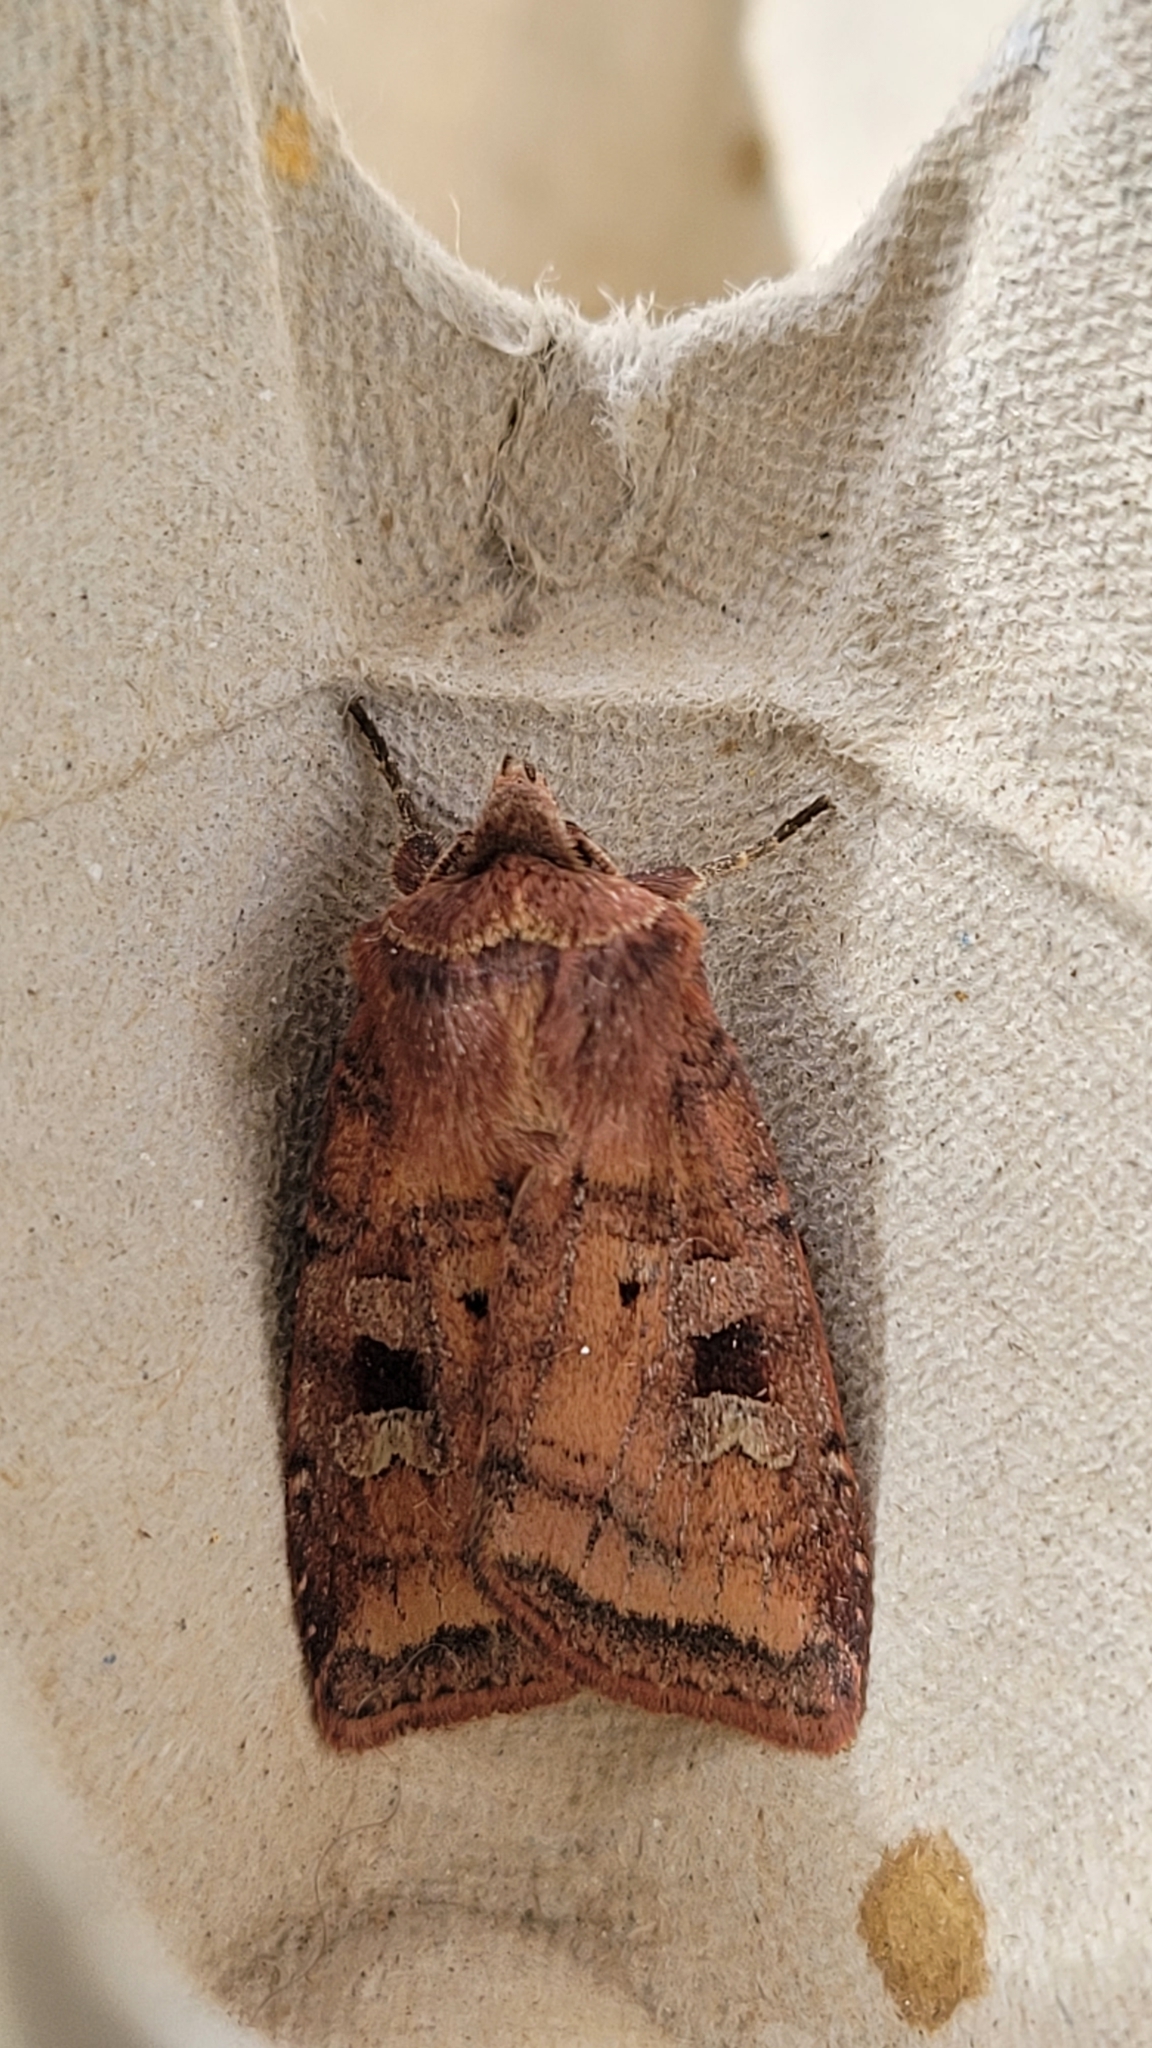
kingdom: Animalia
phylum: Arthropoda
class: Insecta
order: Lepidoptera
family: Noctuidae
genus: Diarsia
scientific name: Diarsia rubi
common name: Small square-spot
